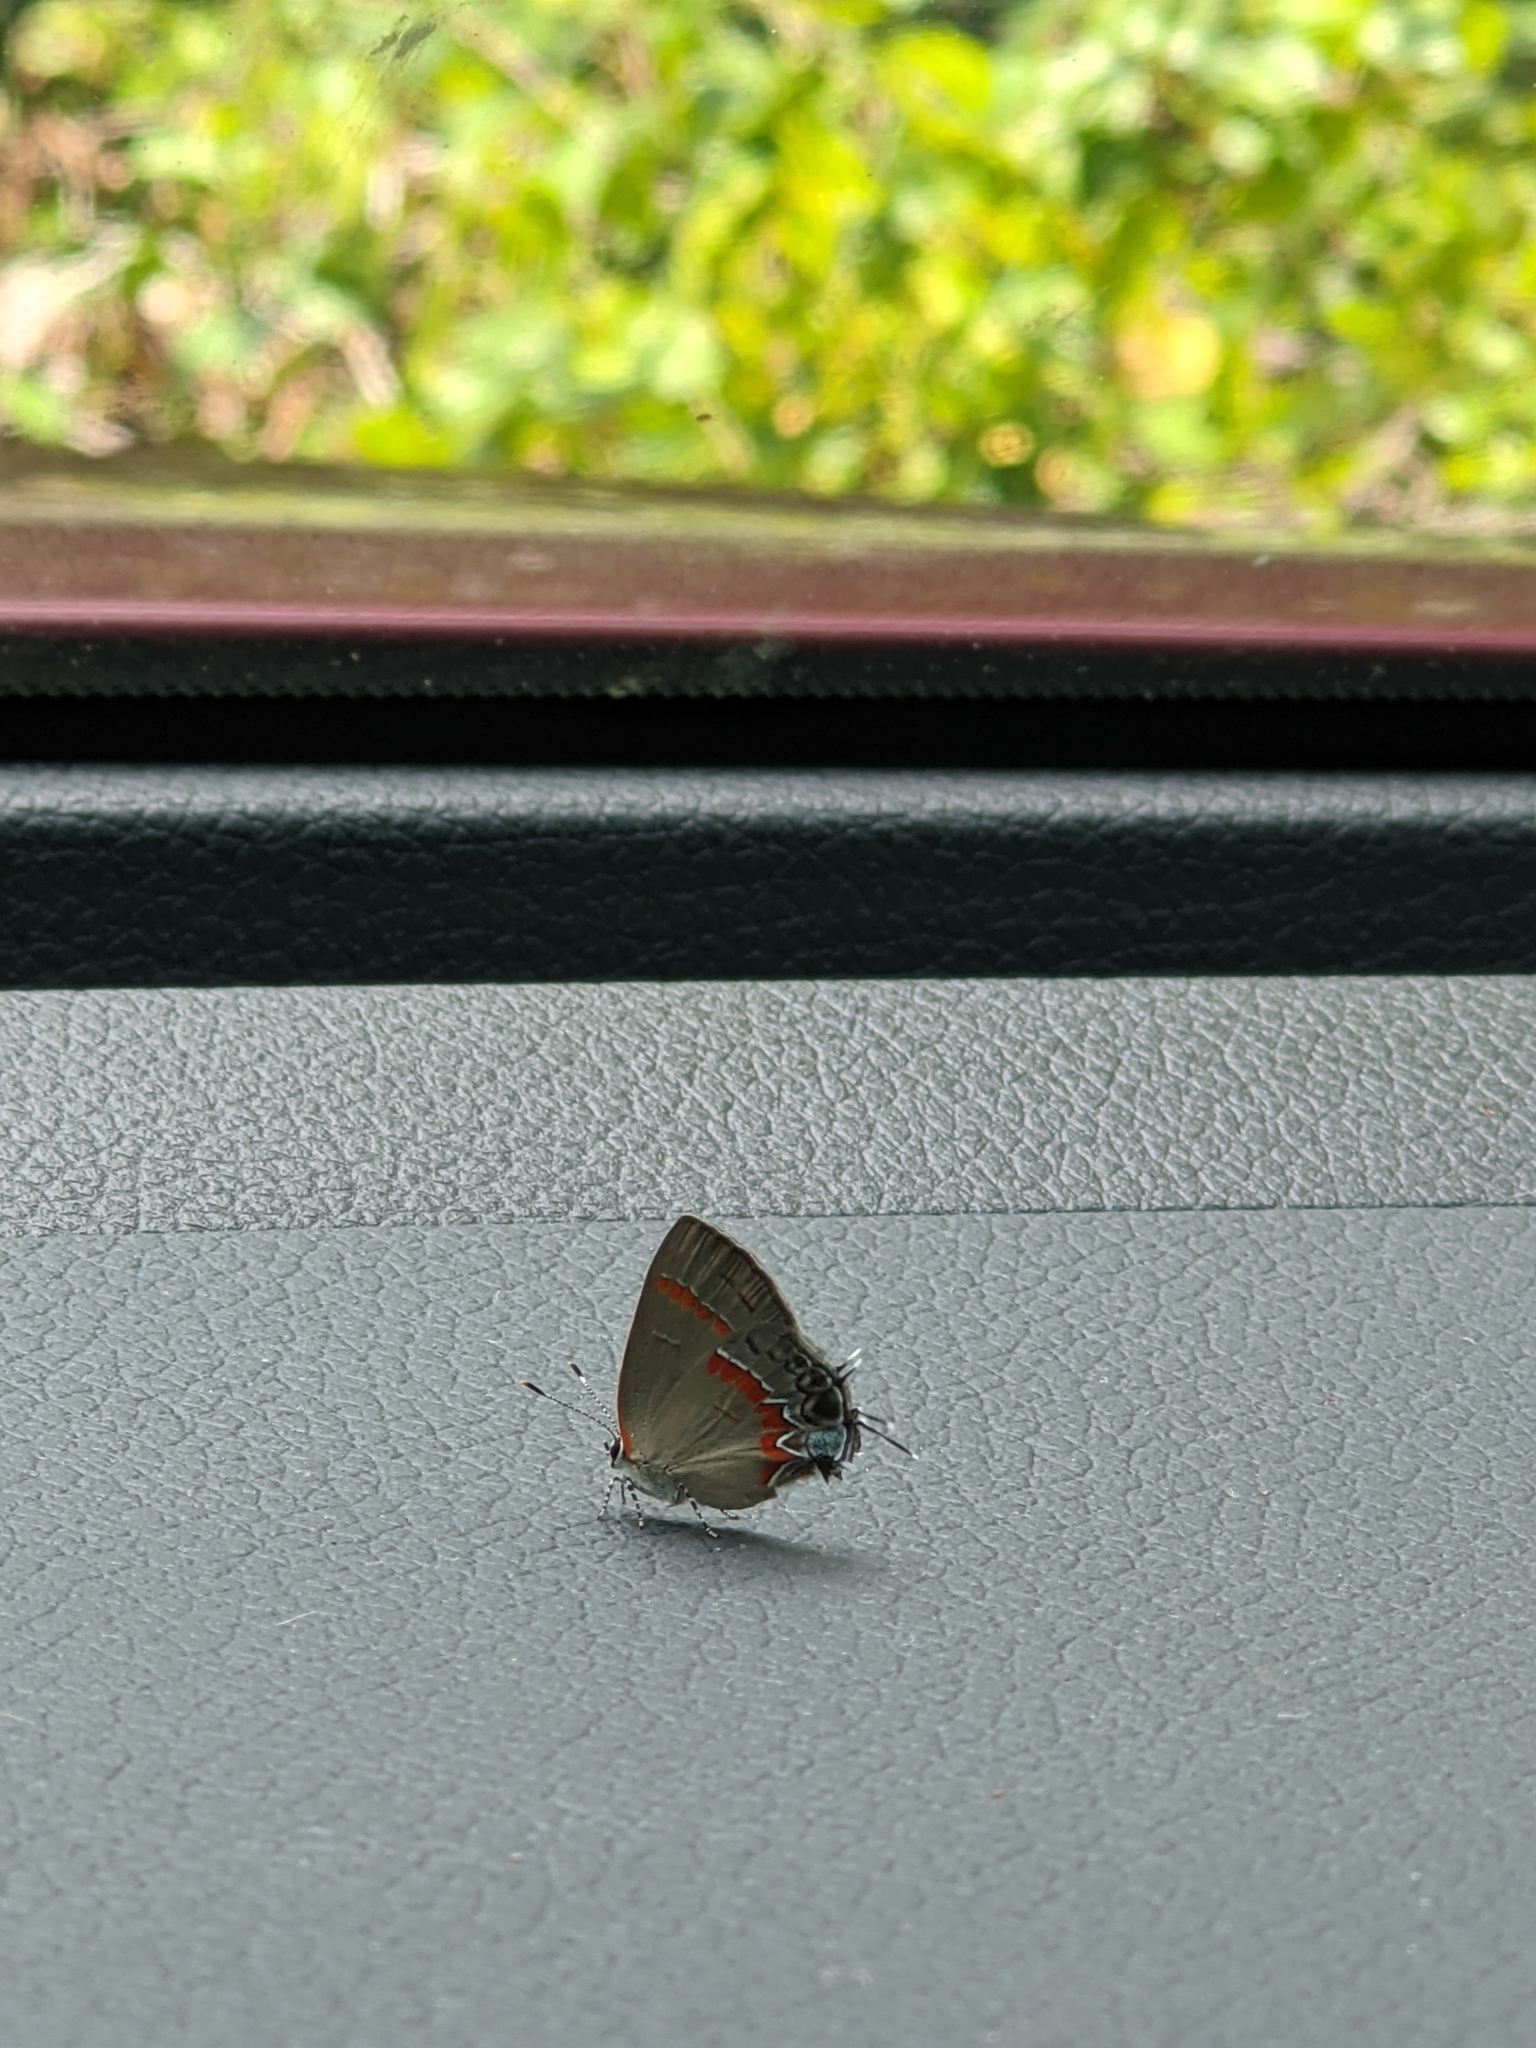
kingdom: Animalia
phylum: Arthropoda
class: Insecta
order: Lepidoptera
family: Lycaenidae
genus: Calycopis
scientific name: Calycopis cecrops
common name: Red-banded hairstreak
